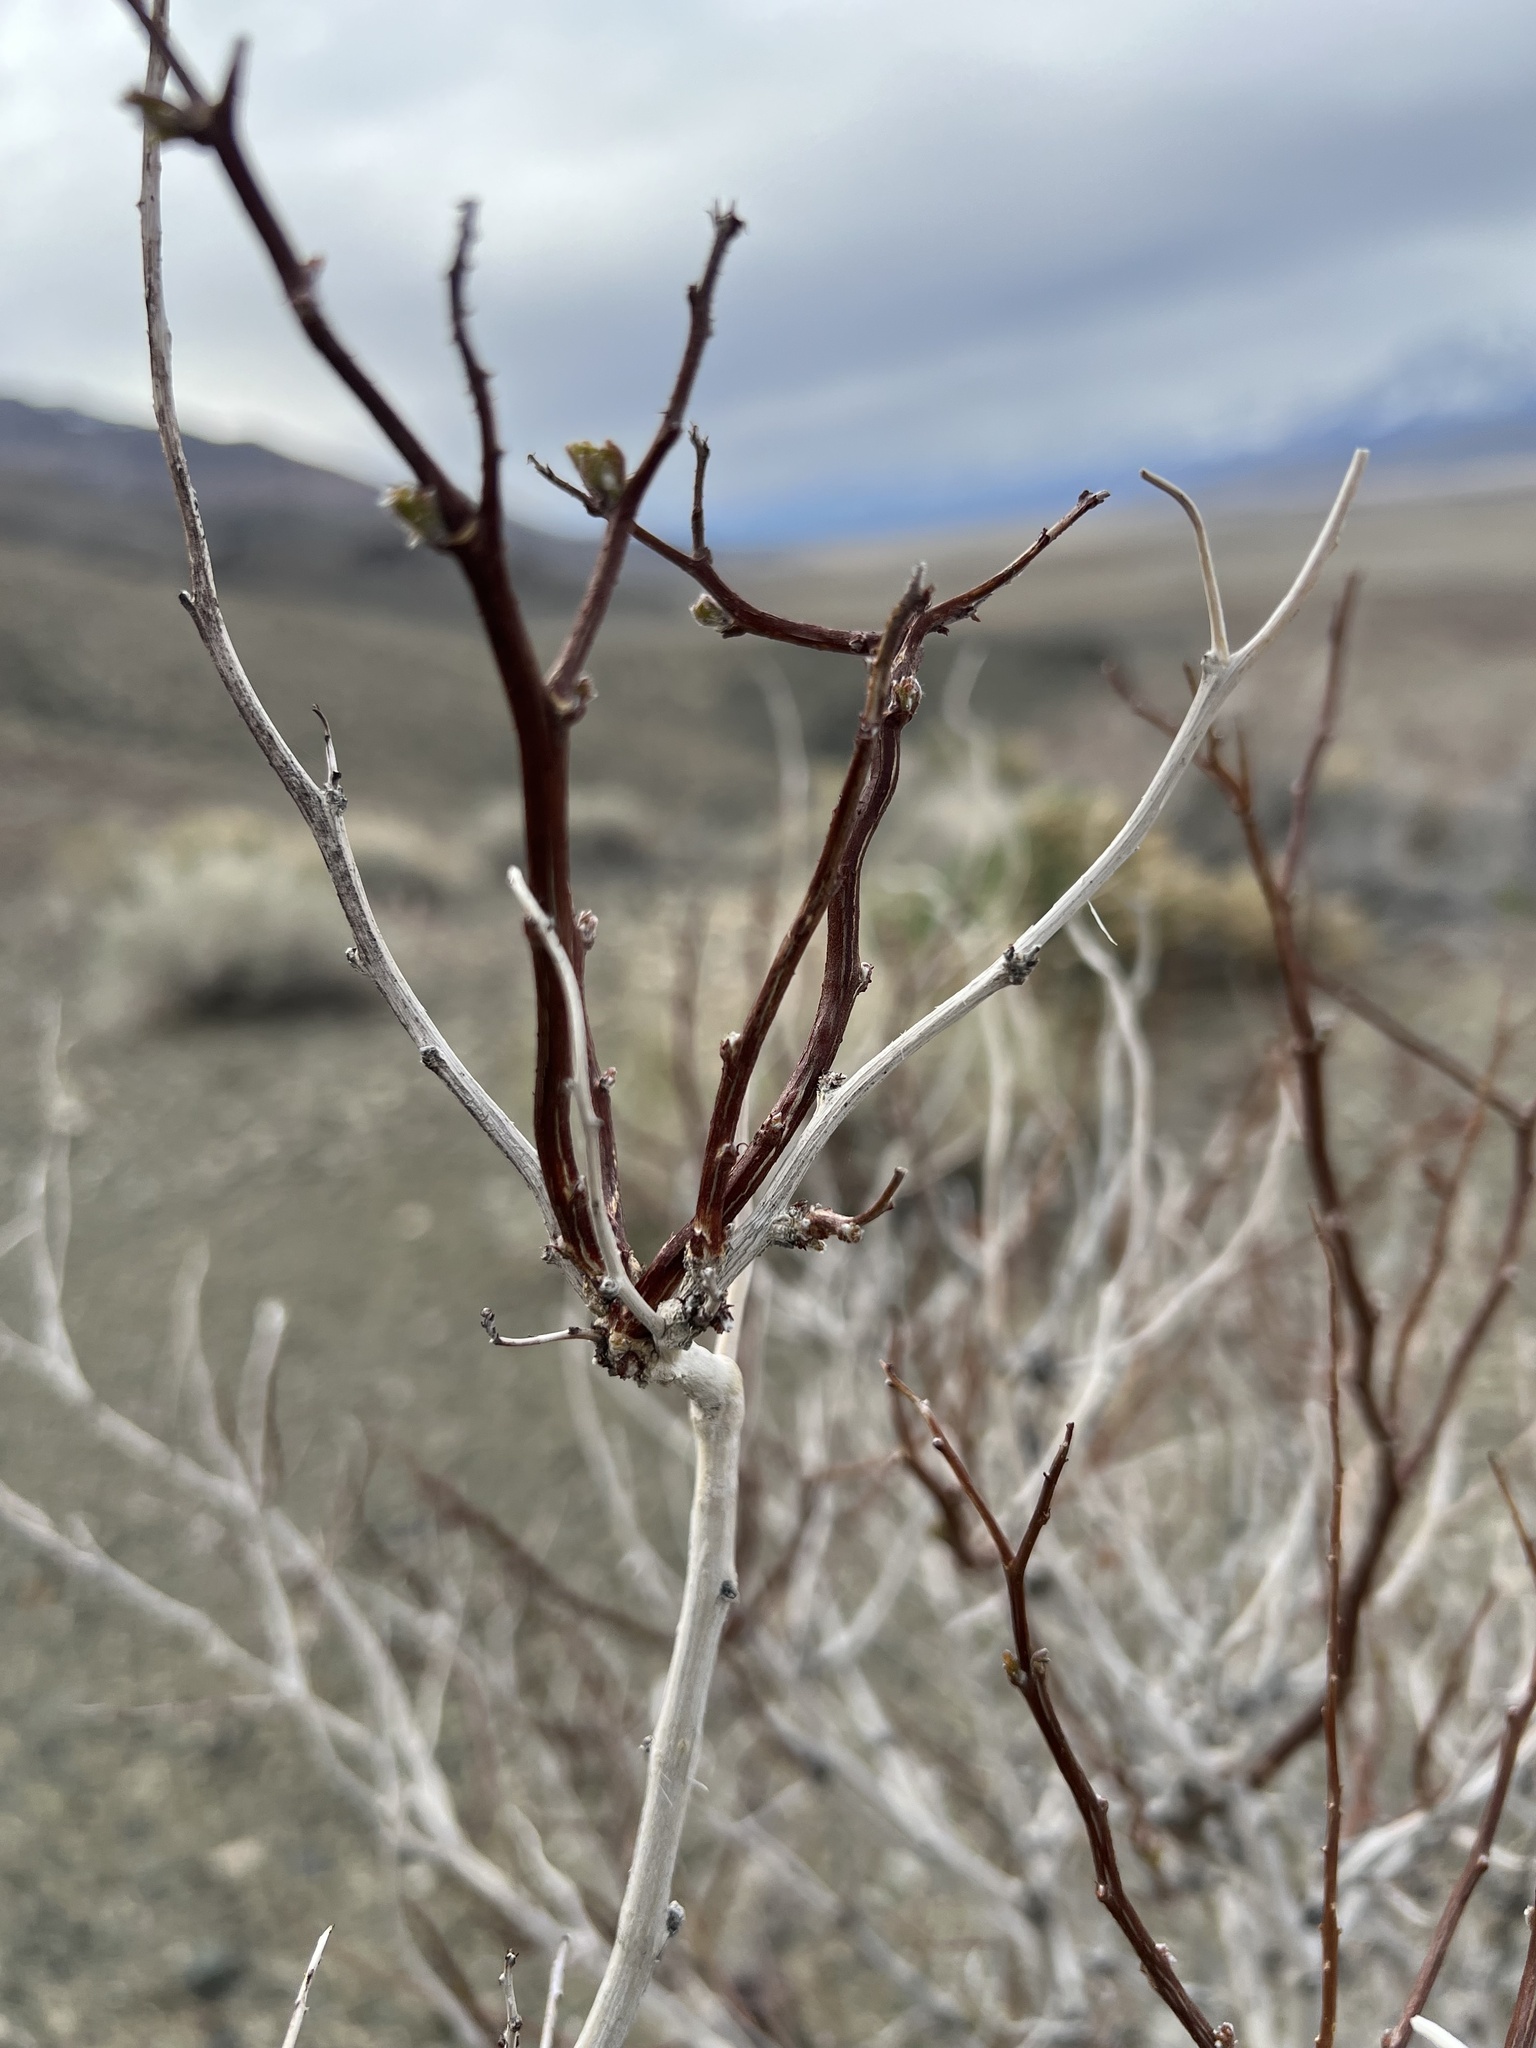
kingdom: Plantae
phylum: Tracheophyta
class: Magnoliopsida
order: Fabales
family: Fabaceae
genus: Psorothamnus
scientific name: Psorothamnus arborescens
